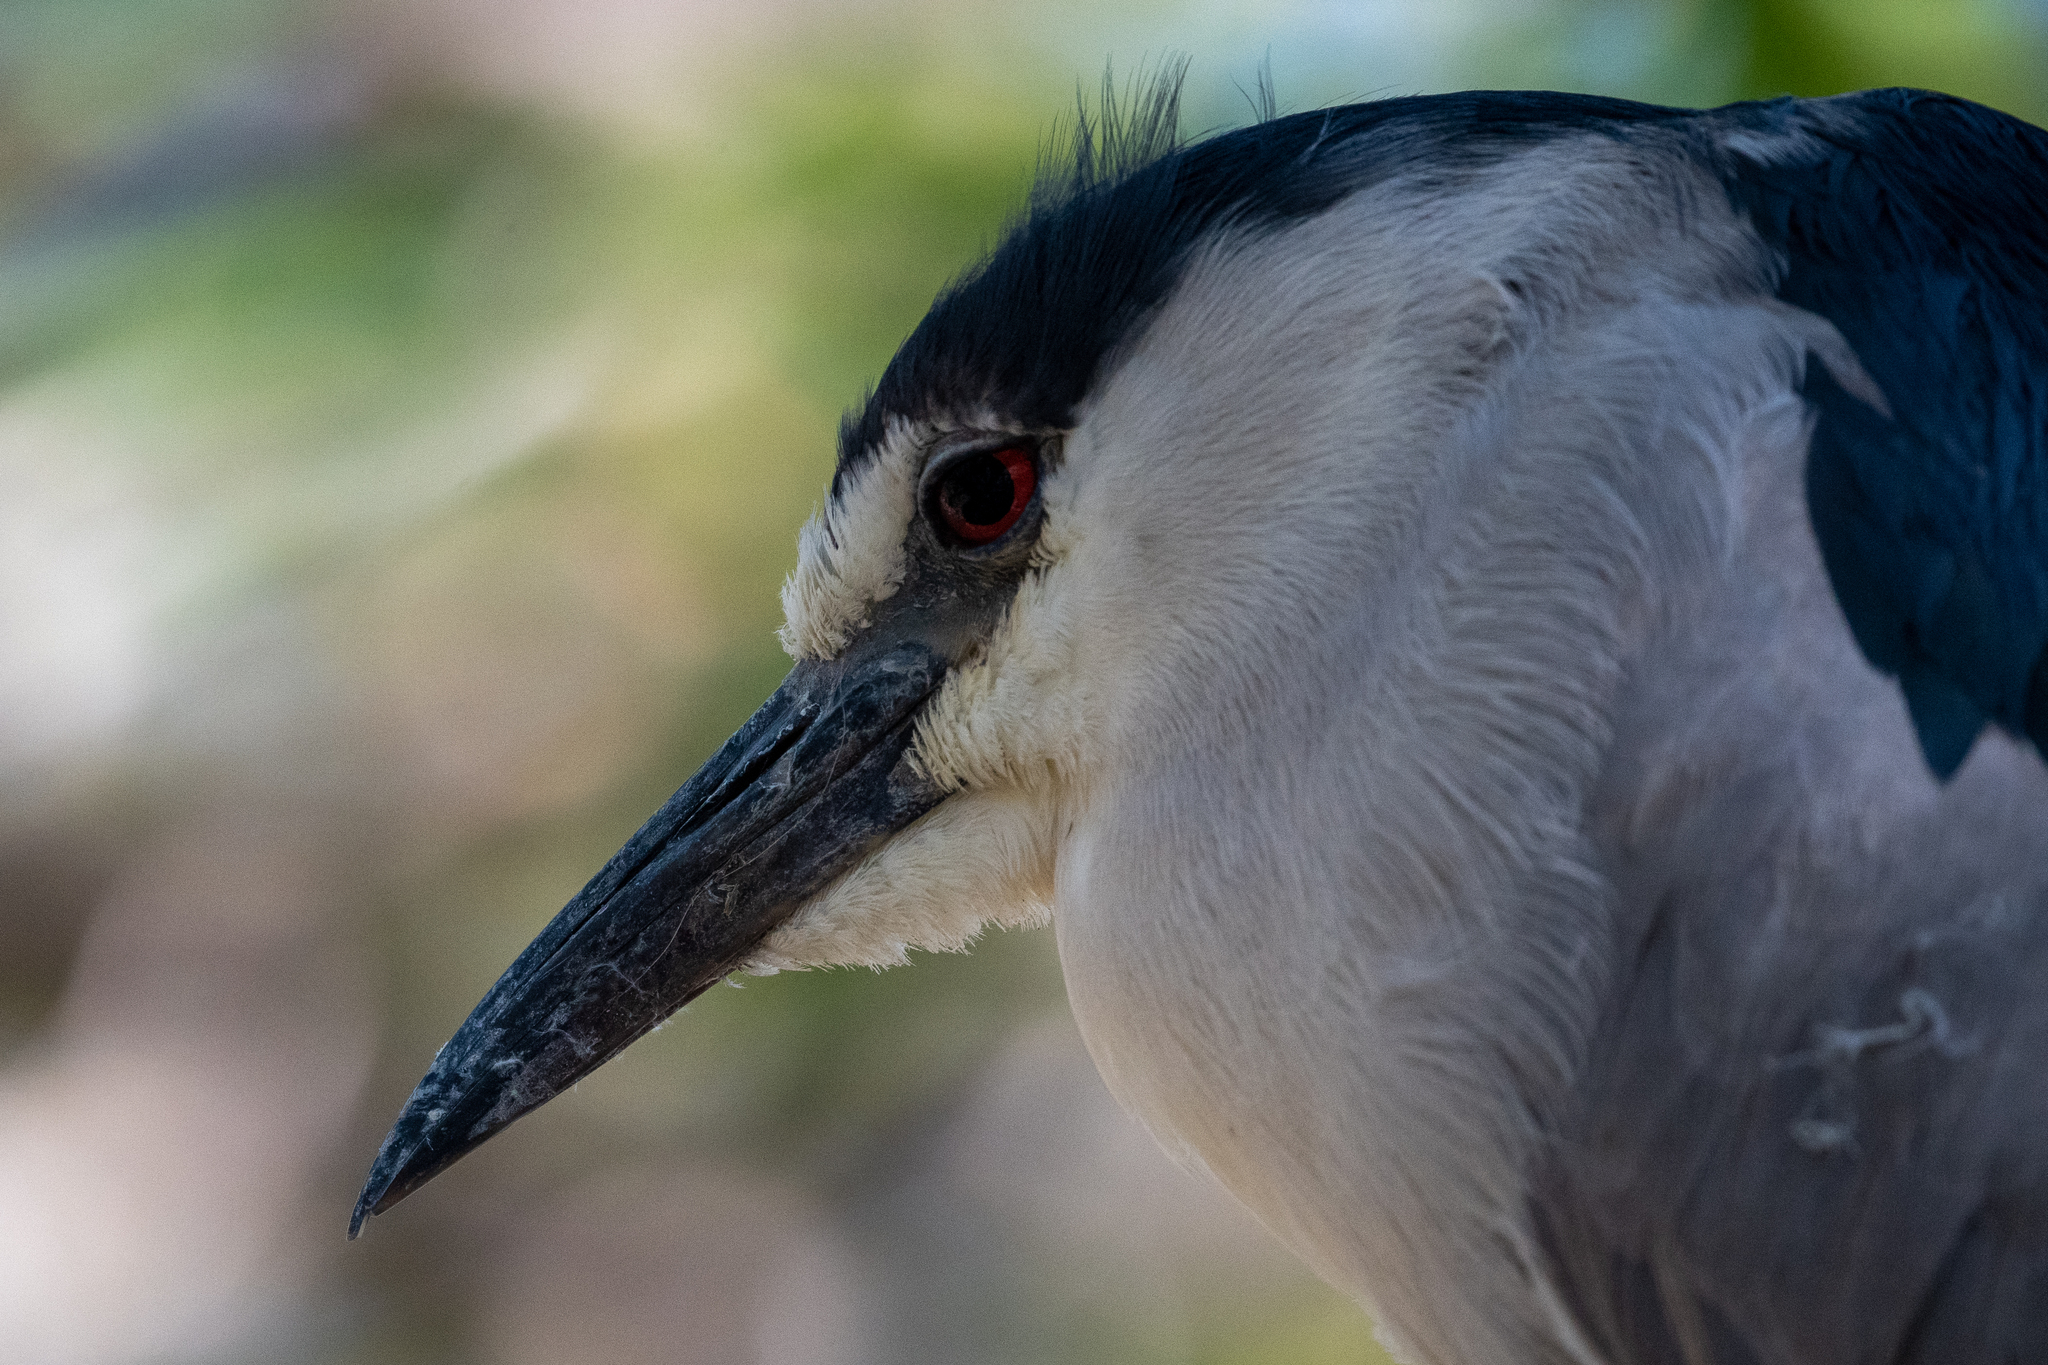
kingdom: Animalia
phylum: Chordata
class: Aves
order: Pelecaniformes
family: Ardeidae
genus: Nycticorax
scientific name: Nycticorax nycticorax
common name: Black-crowned night heron
